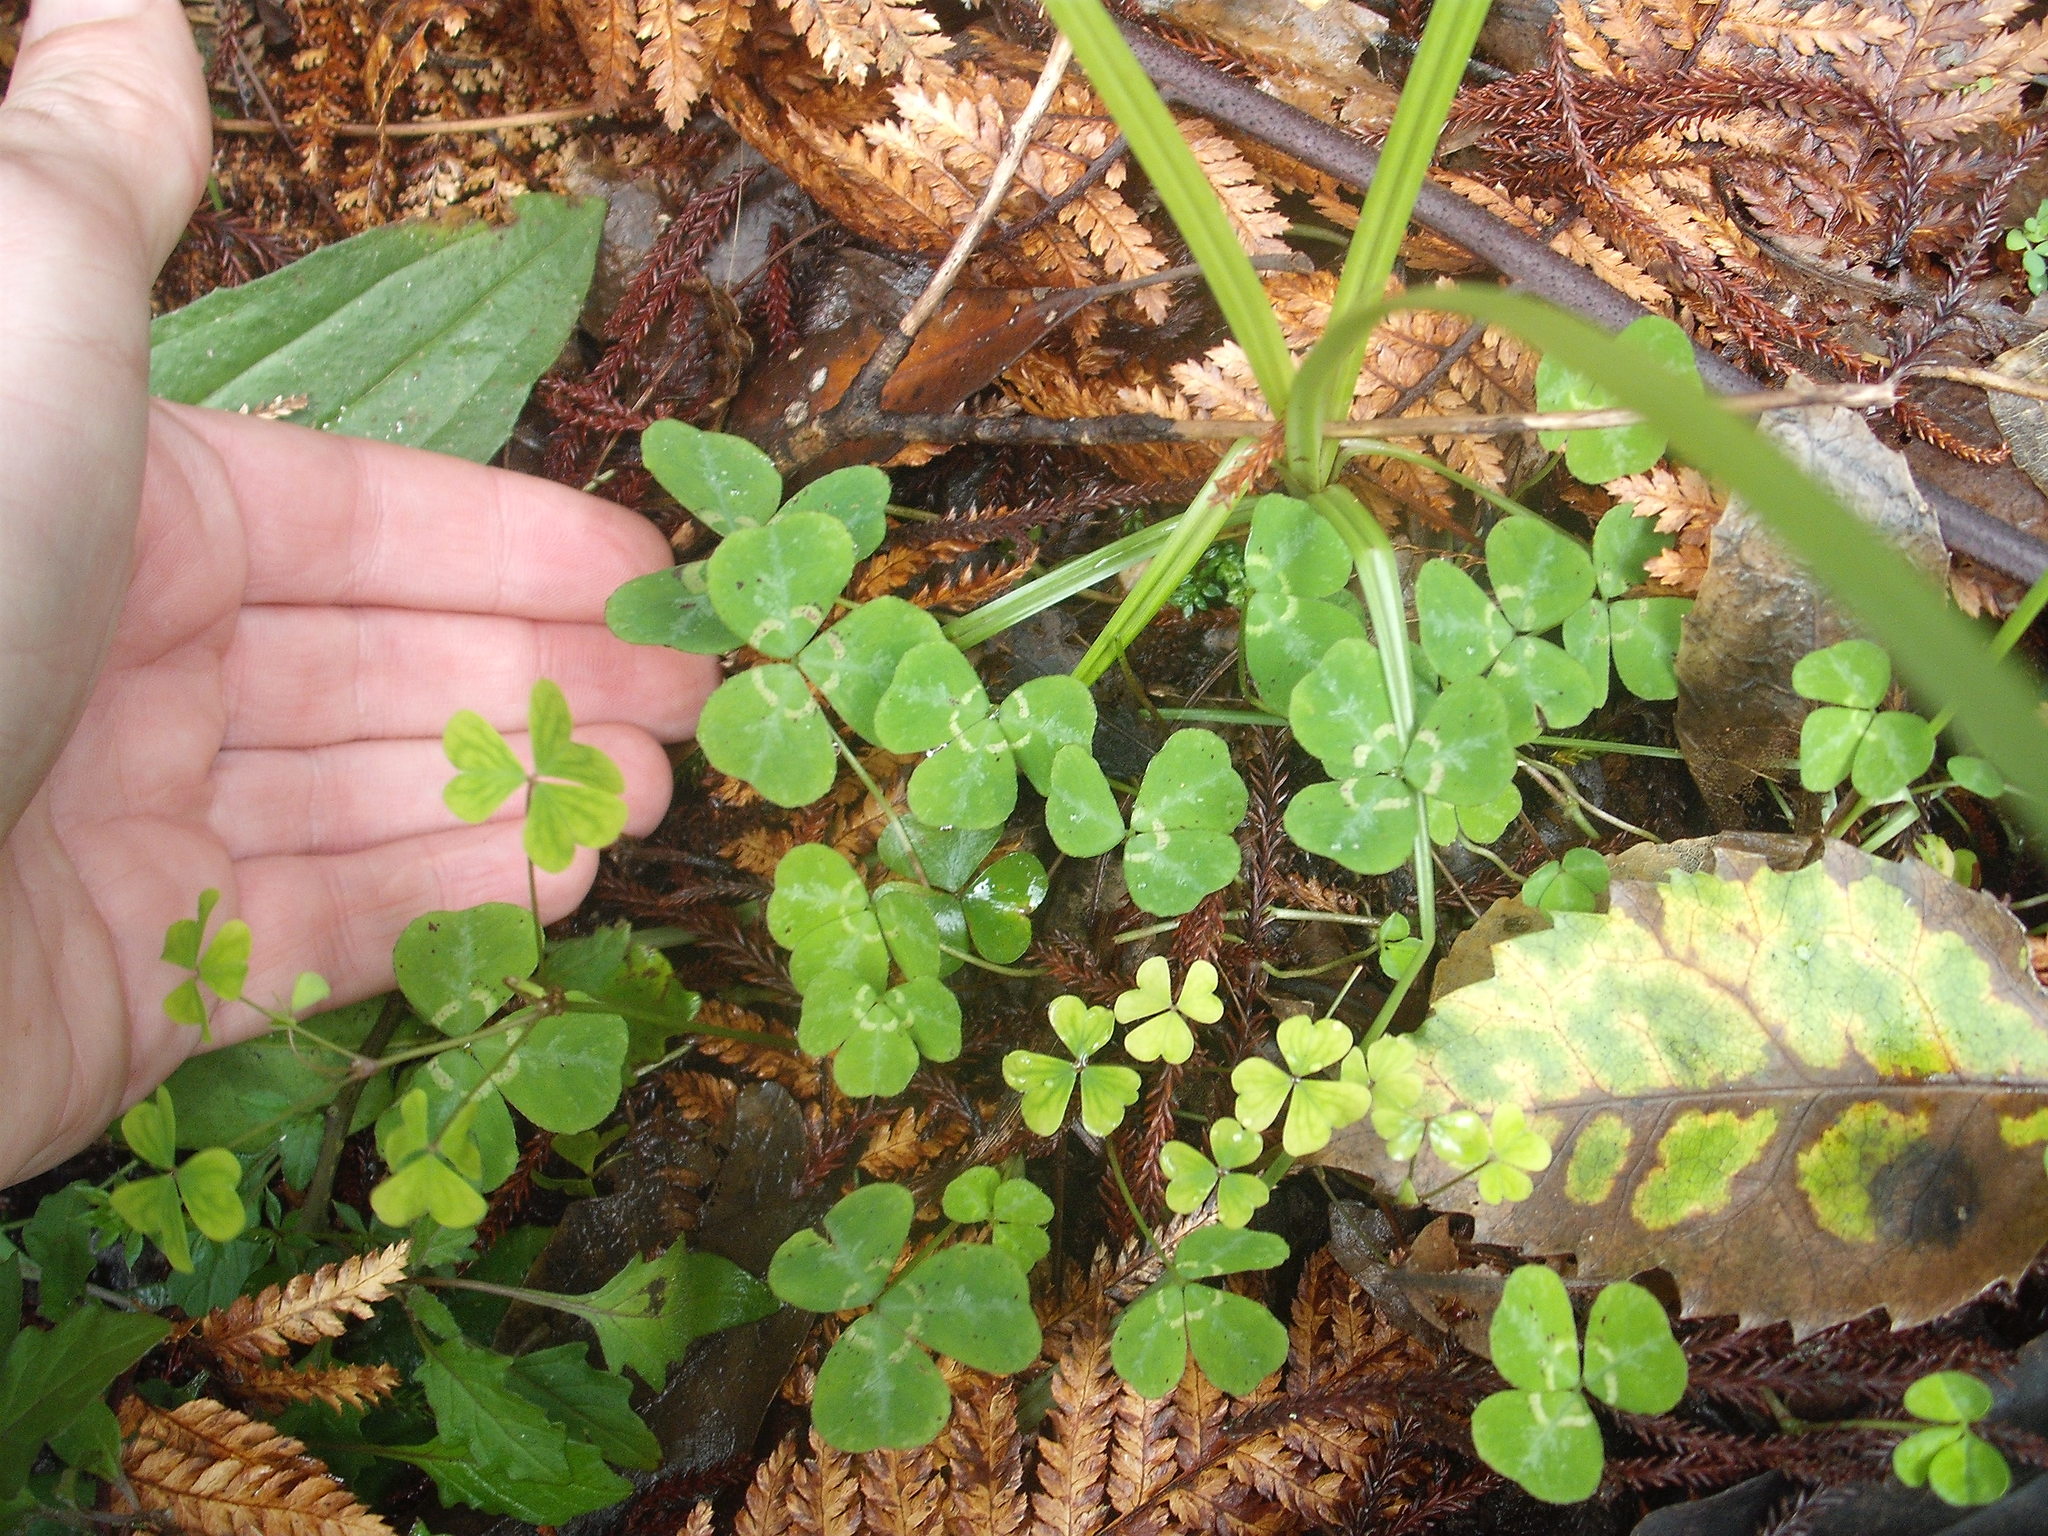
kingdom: Plantae
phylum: Tracheophyta
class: Magnoliopsida
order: Fabales
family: Fabaceae
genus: Parochetus
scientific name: Parochetus communis
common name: Blue oxalis
